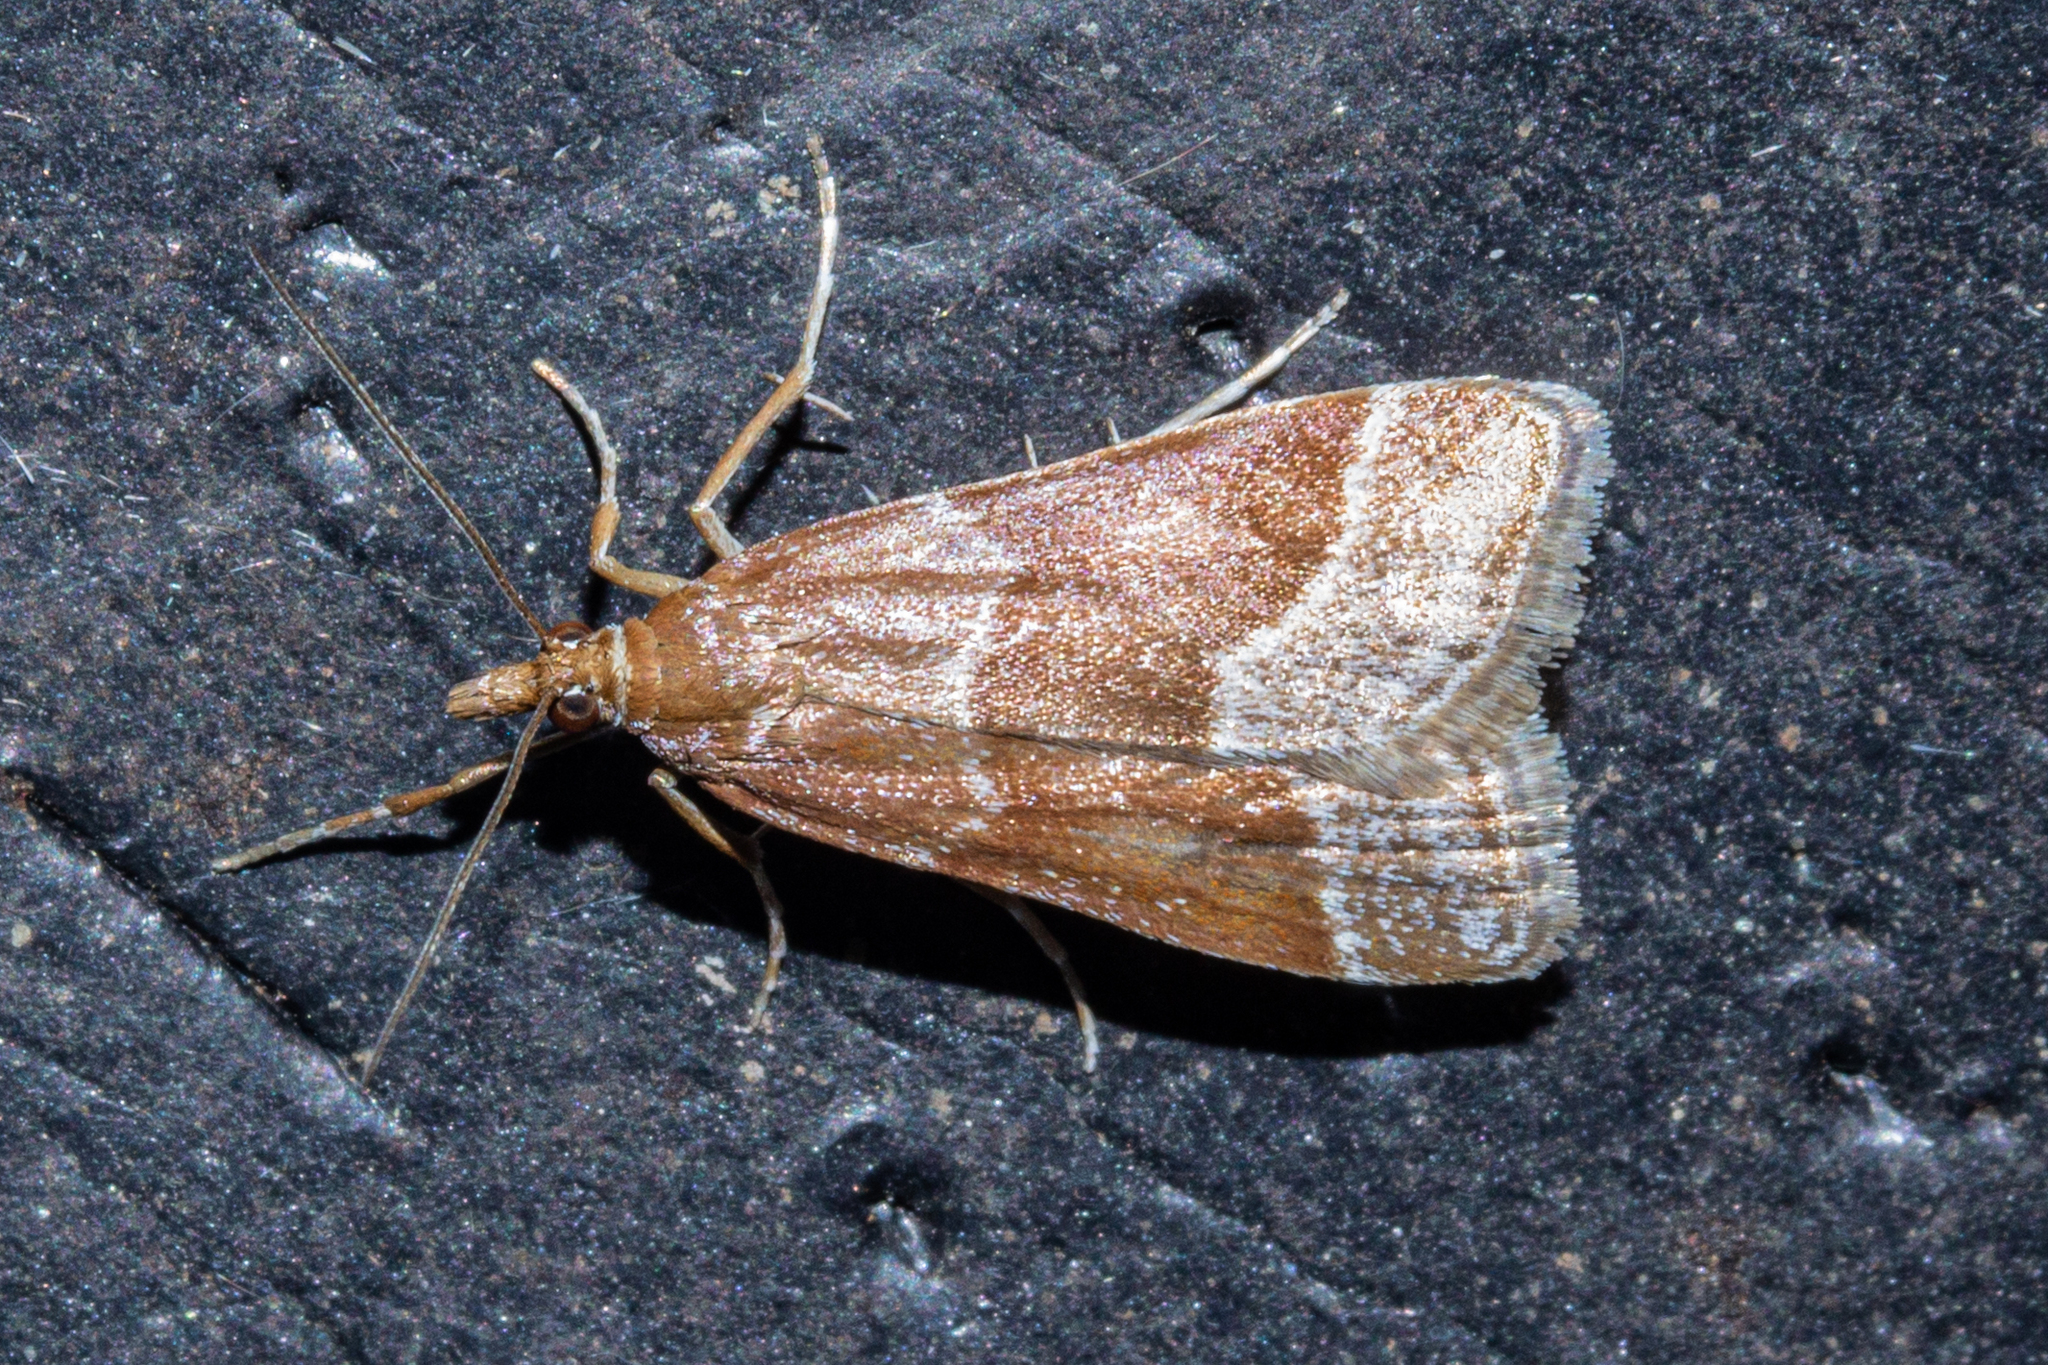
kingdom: Animalia
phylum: Arthropoda
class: Insecta
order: Lepidoptera
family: Crambidae
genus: Eudonia
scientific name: Eudonia feredayi
